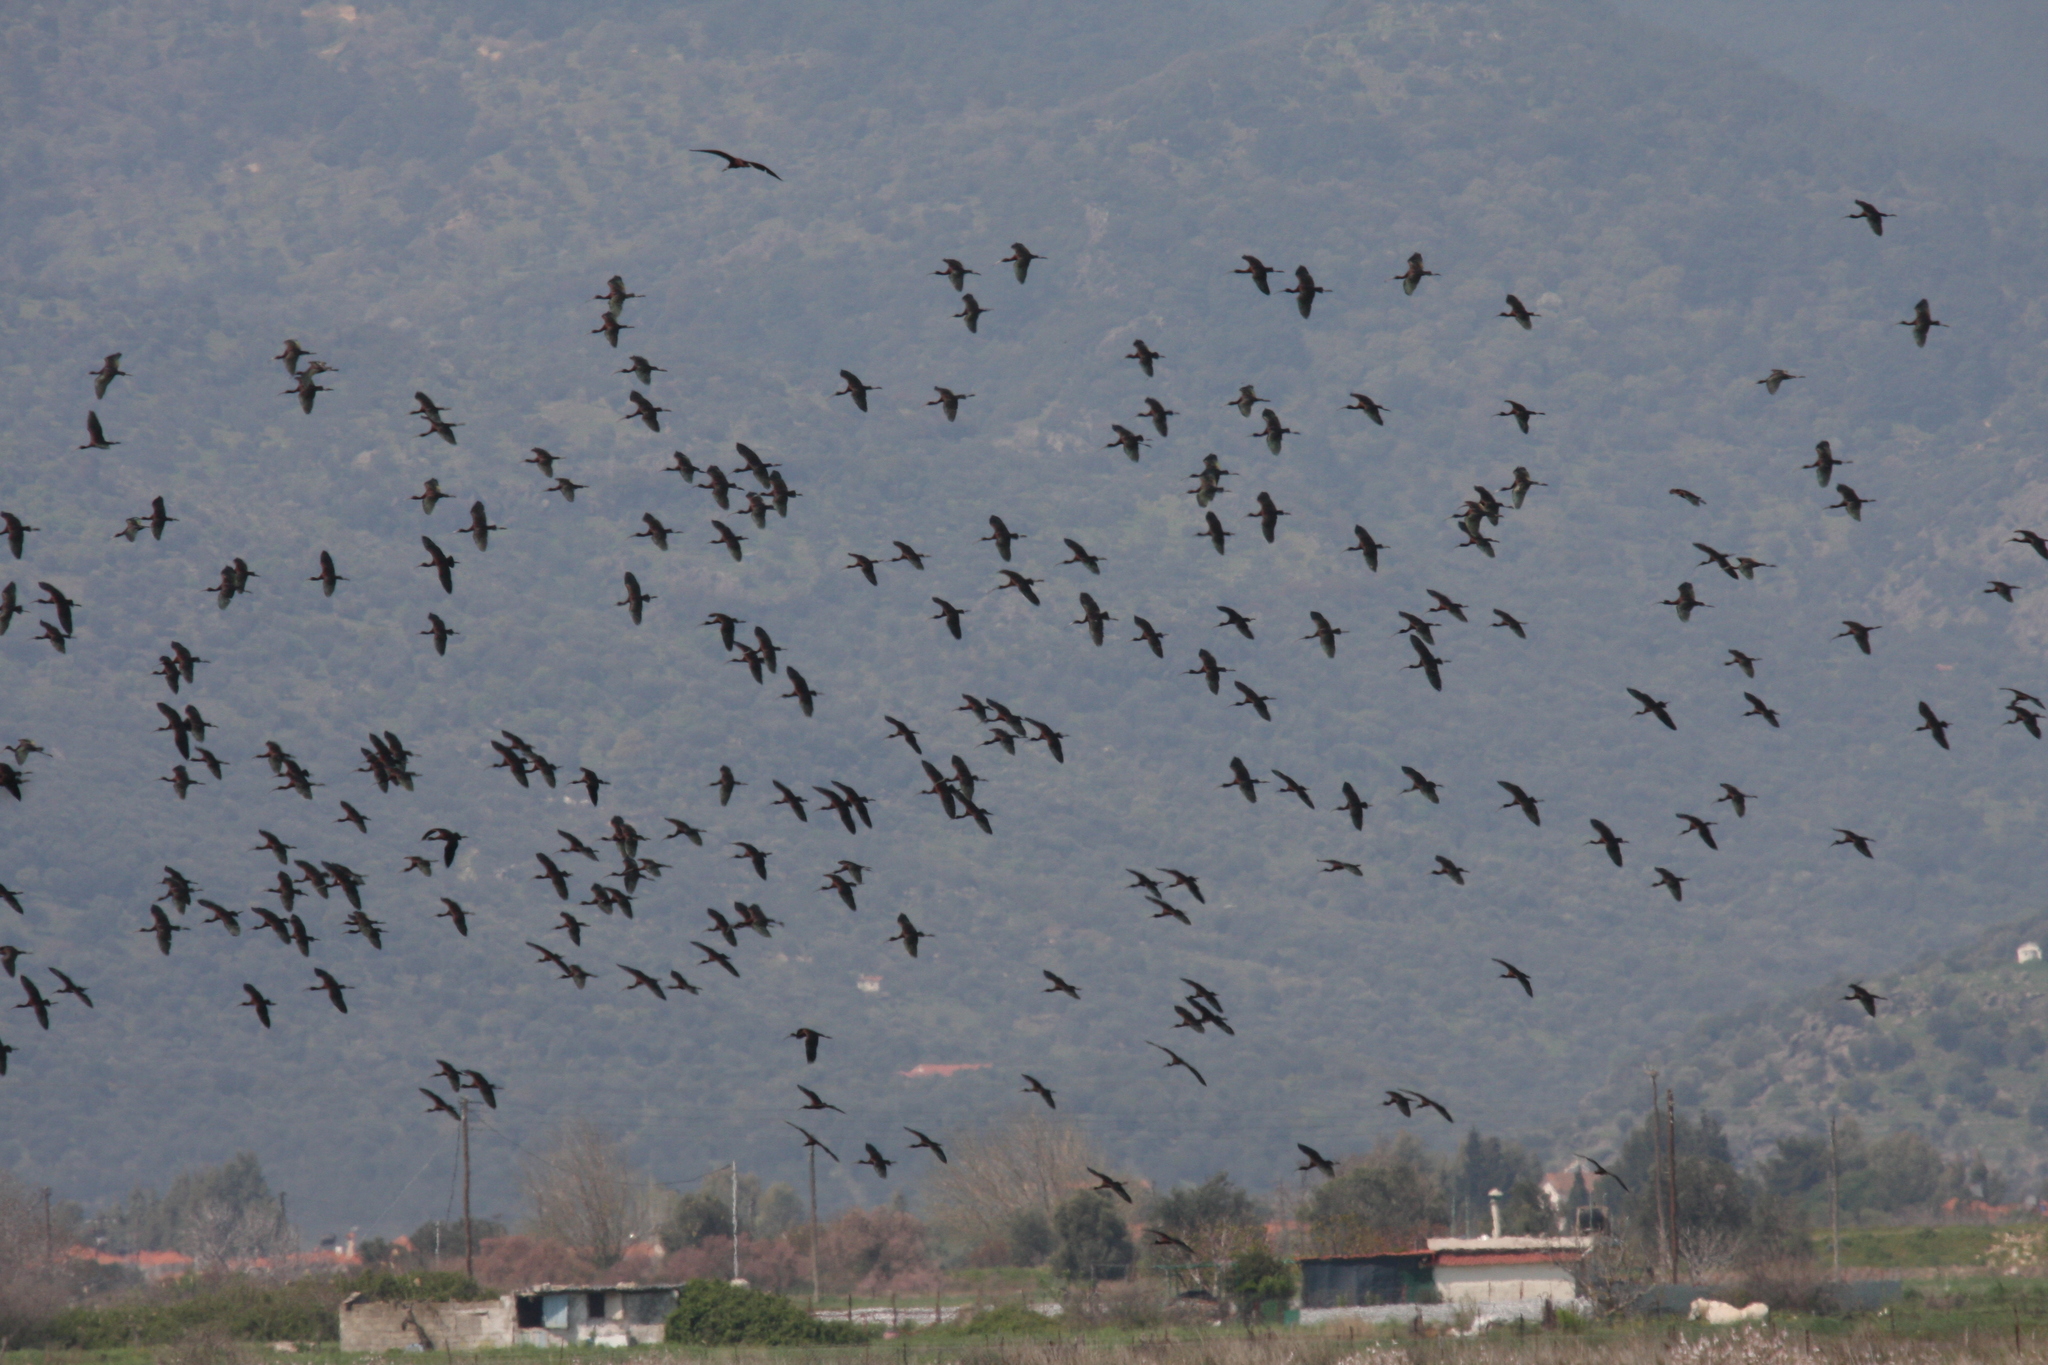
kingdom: Animalia
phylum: Chordata
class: Aves
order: Pelecaniformes
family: Threskiornithidae
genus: Plegadis
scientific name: Plegadis falcinellus
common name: Glossy ibis
